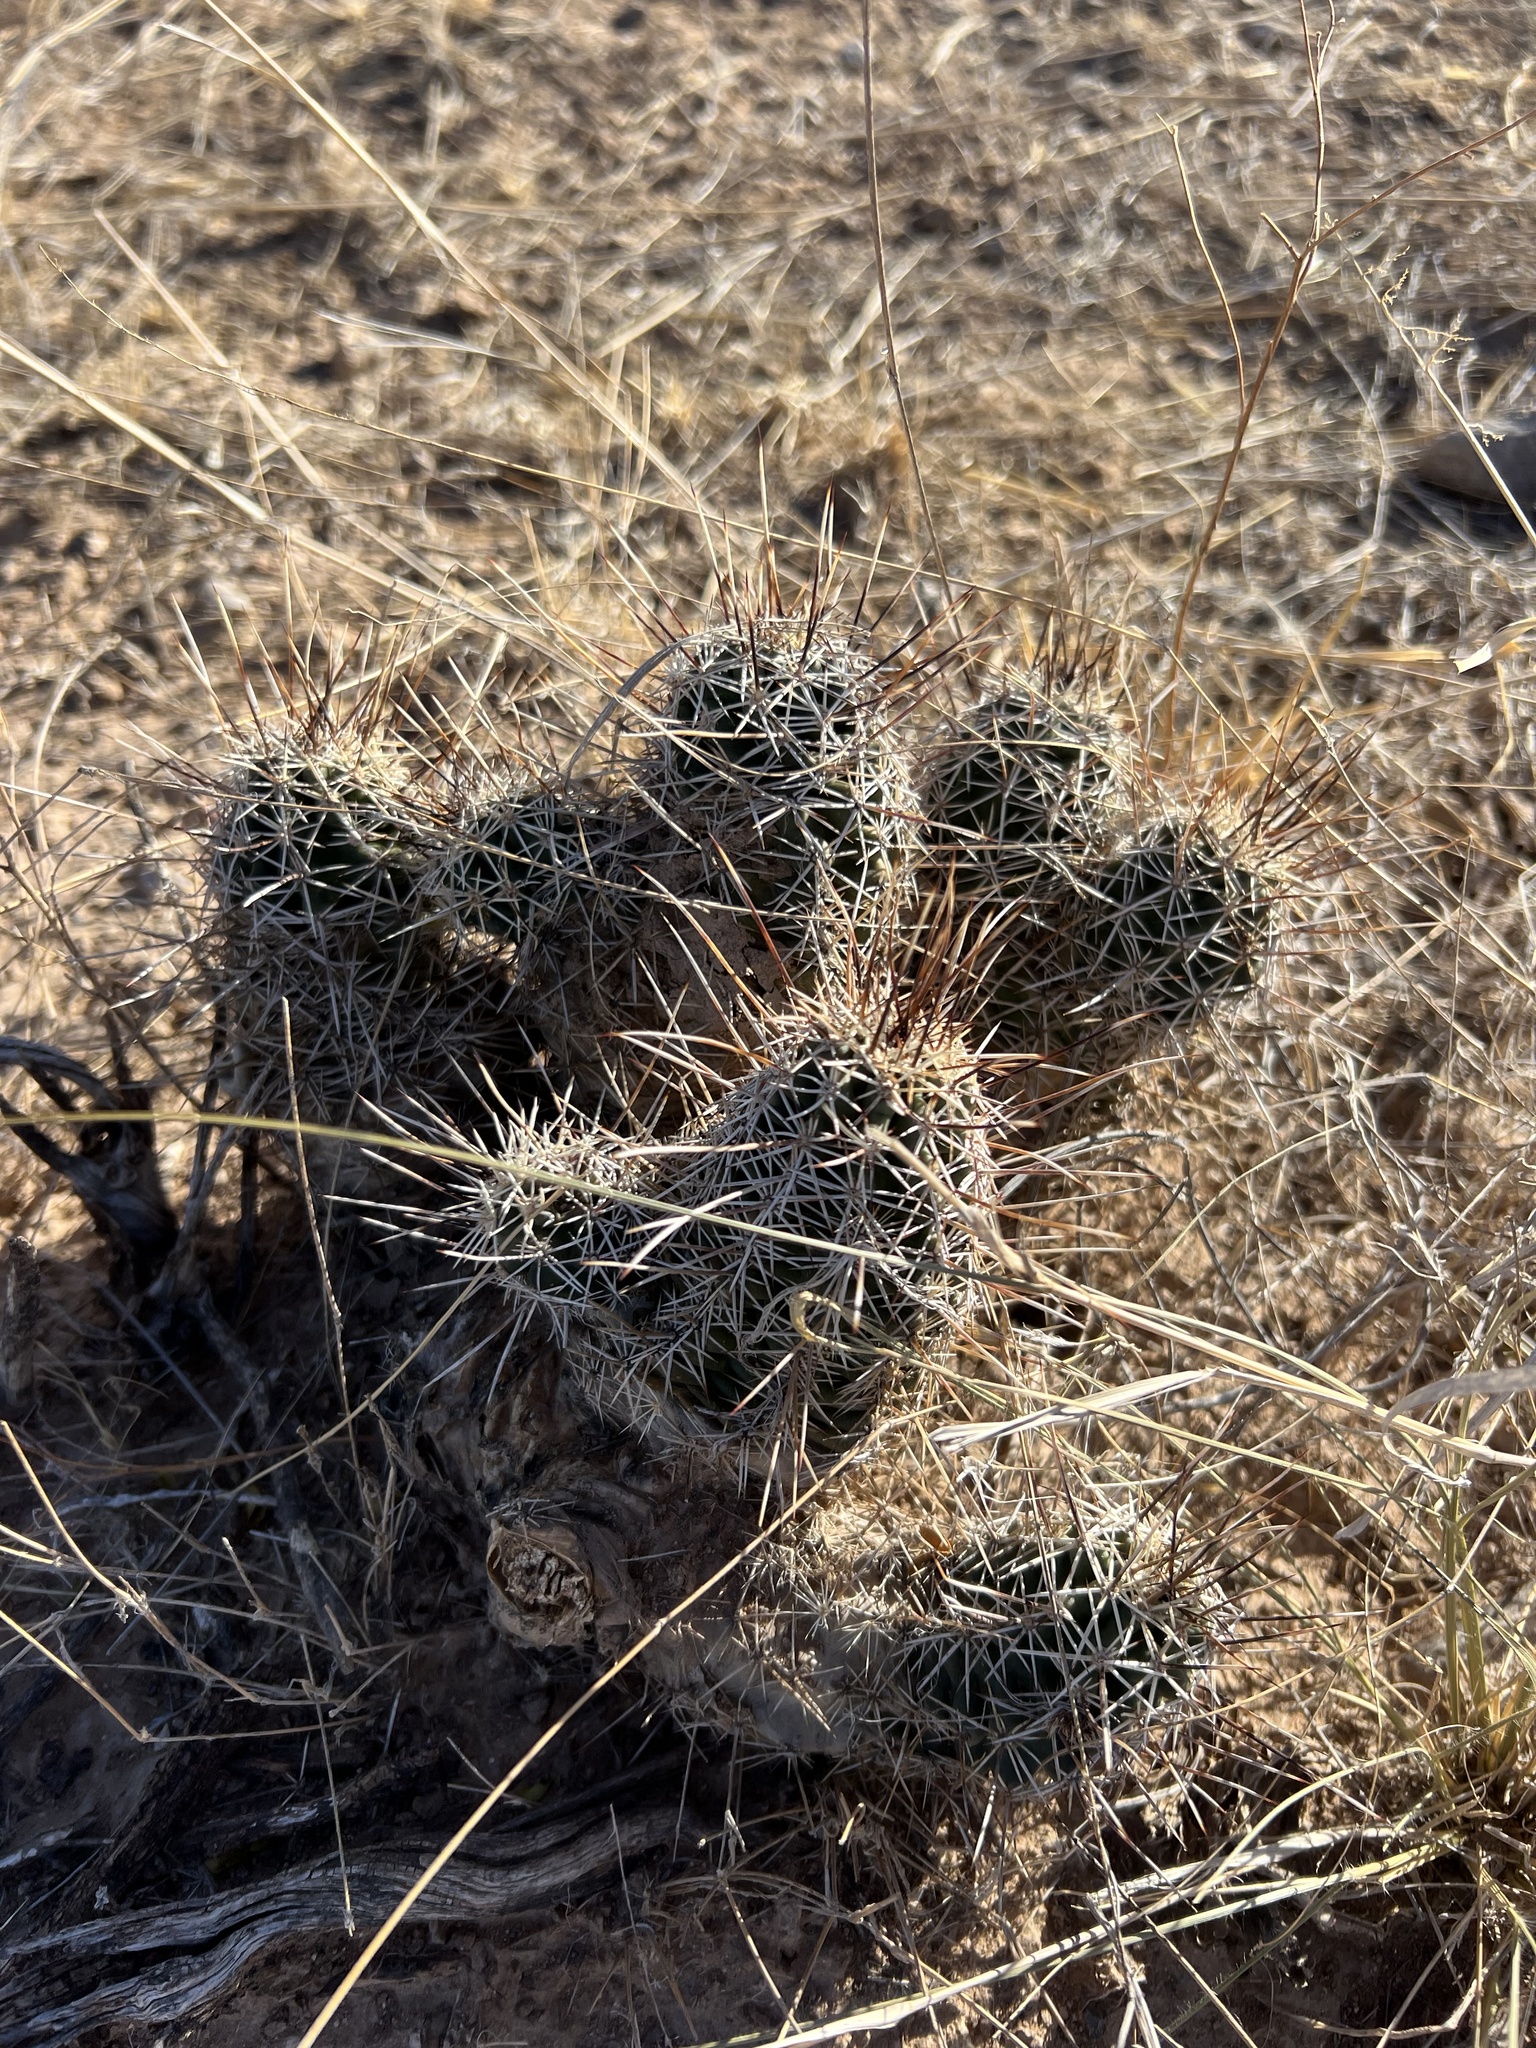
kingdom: Plantae
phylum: Tracheophyta
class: Magnoliopsida
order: Caryophyllales
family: Cactaceae
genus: Echinocereus
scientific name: Echinocereus fendleri
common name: Fendler's hedgehog cactus
